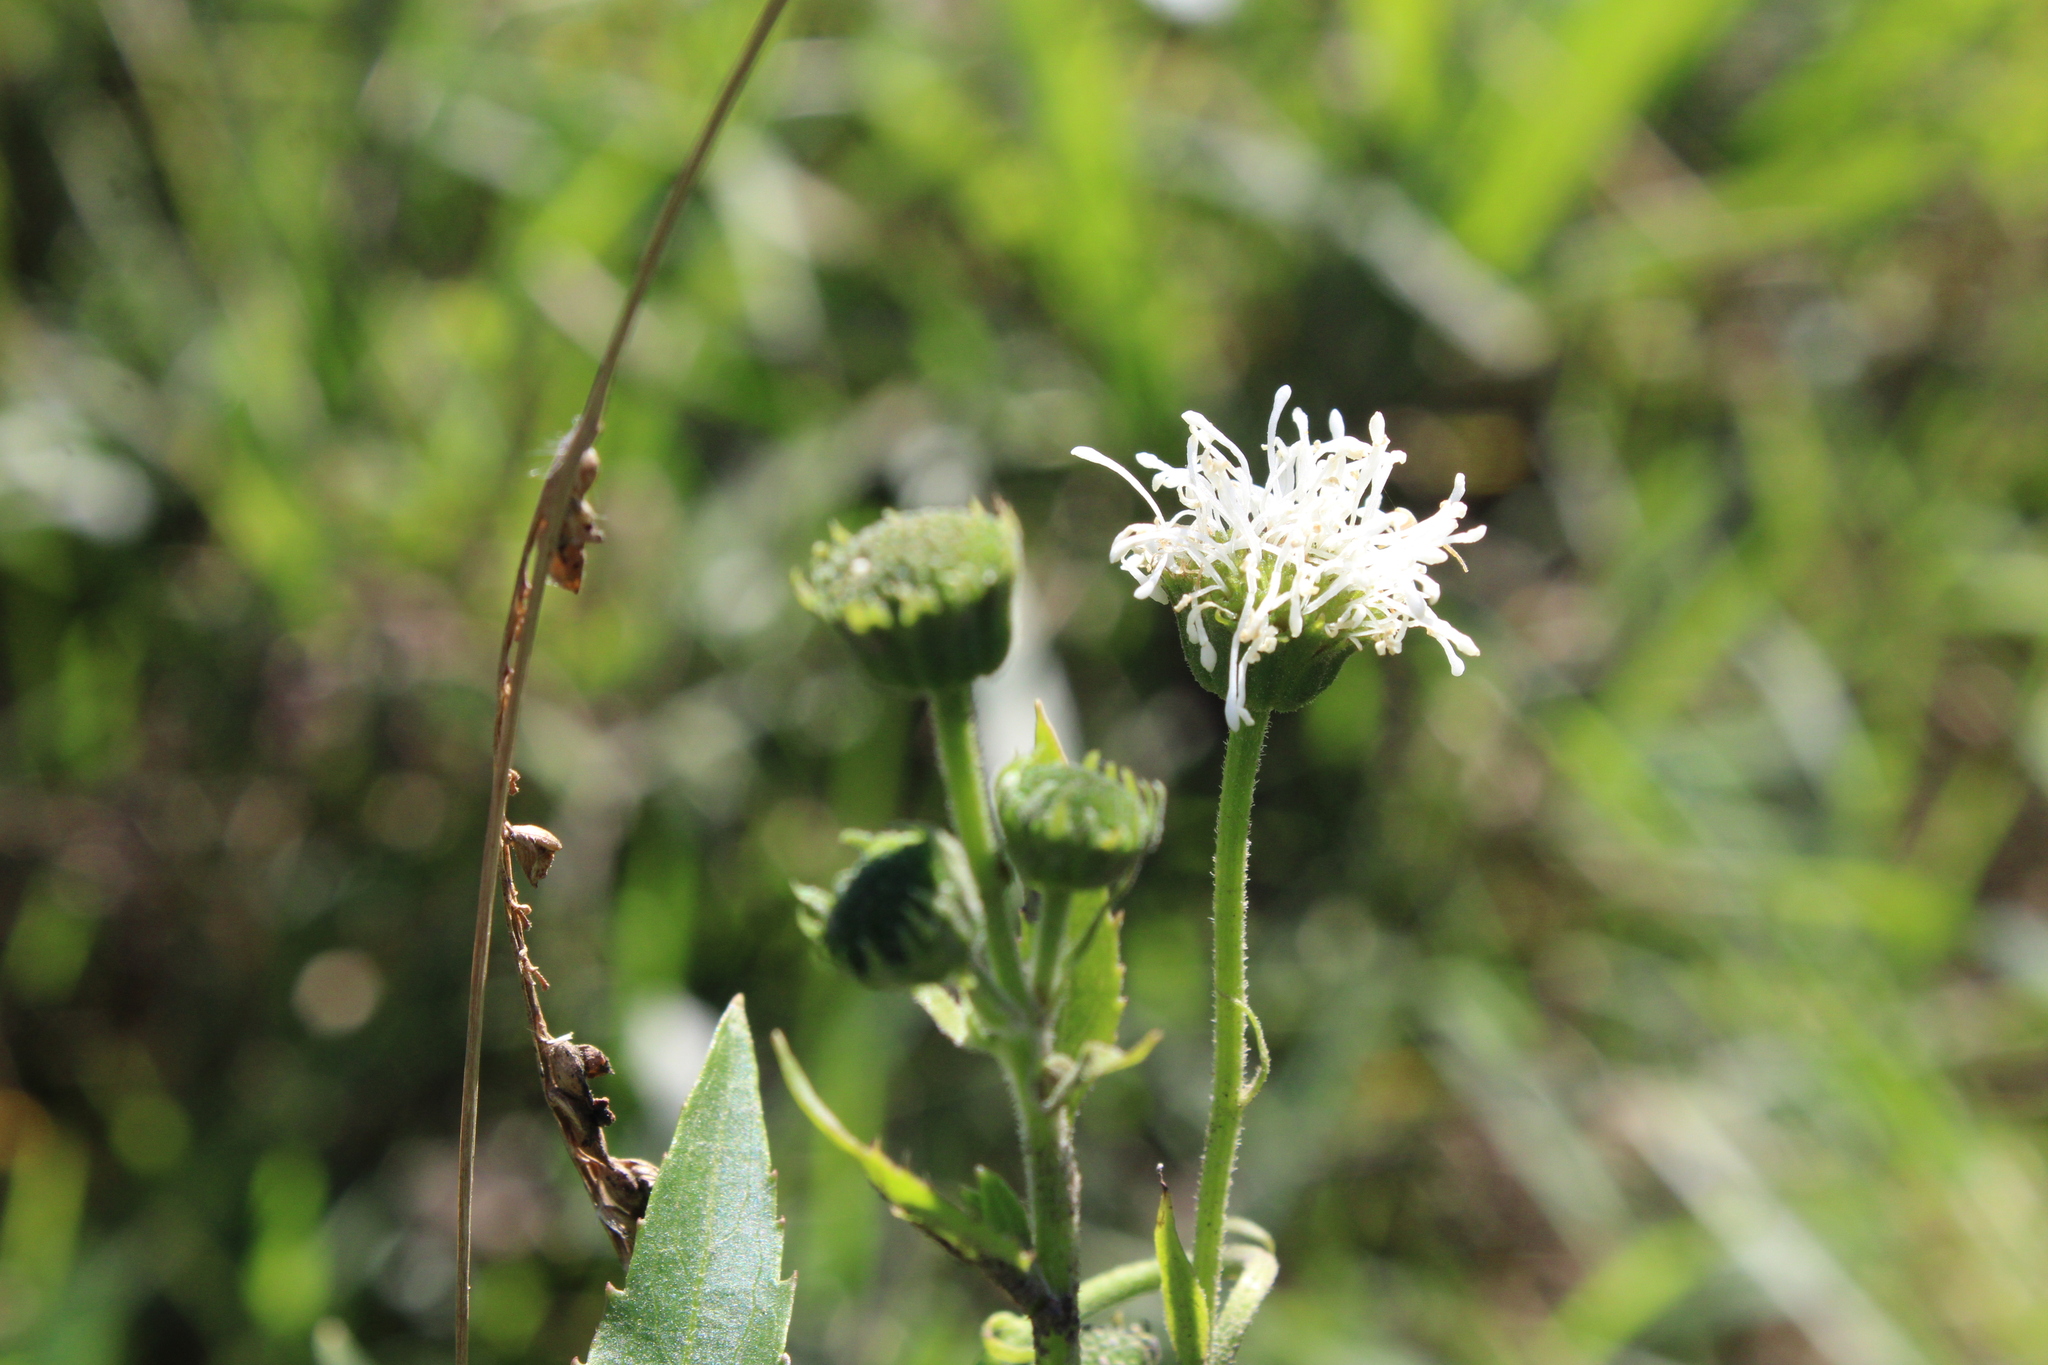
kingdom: Plantae
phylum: Tracheophyta
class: Magnoliopsida
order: Asterales
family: Asteraceae
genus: Gymnocoronis
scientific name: Gymnocoronis spilanthoides
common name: Senegal teaplant
